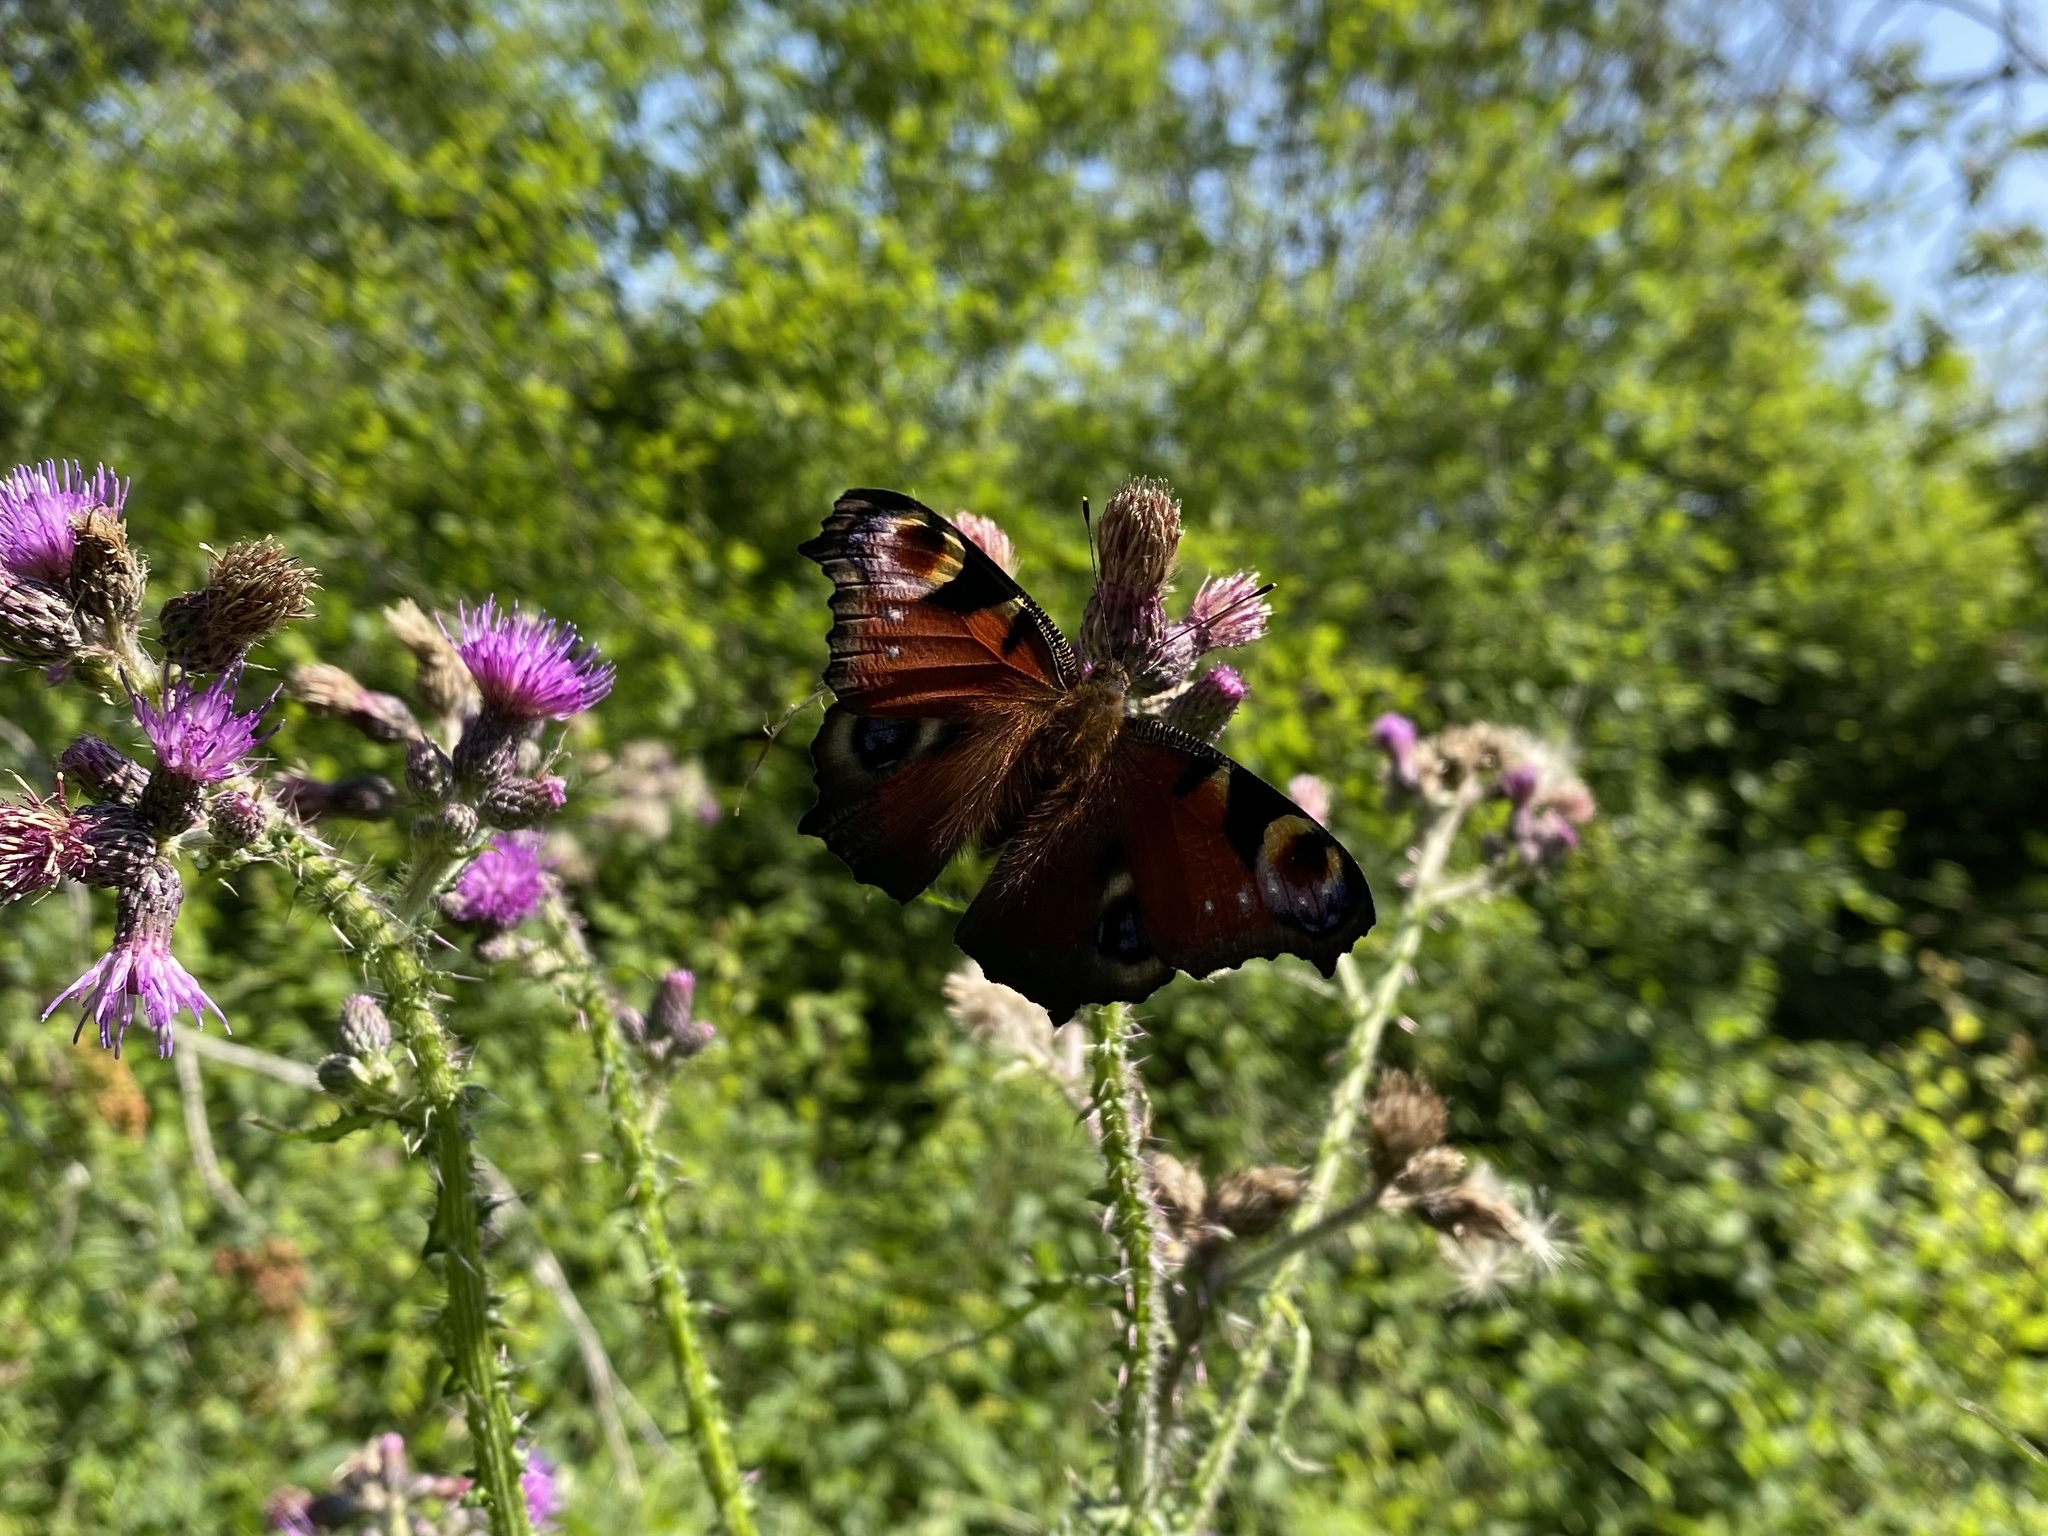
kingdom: Animalia
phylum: Arthropoda
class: Insecta
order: Lepidoptera
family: Nymphalidae
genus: Aglais
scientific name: Aglais io
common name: Peacock
